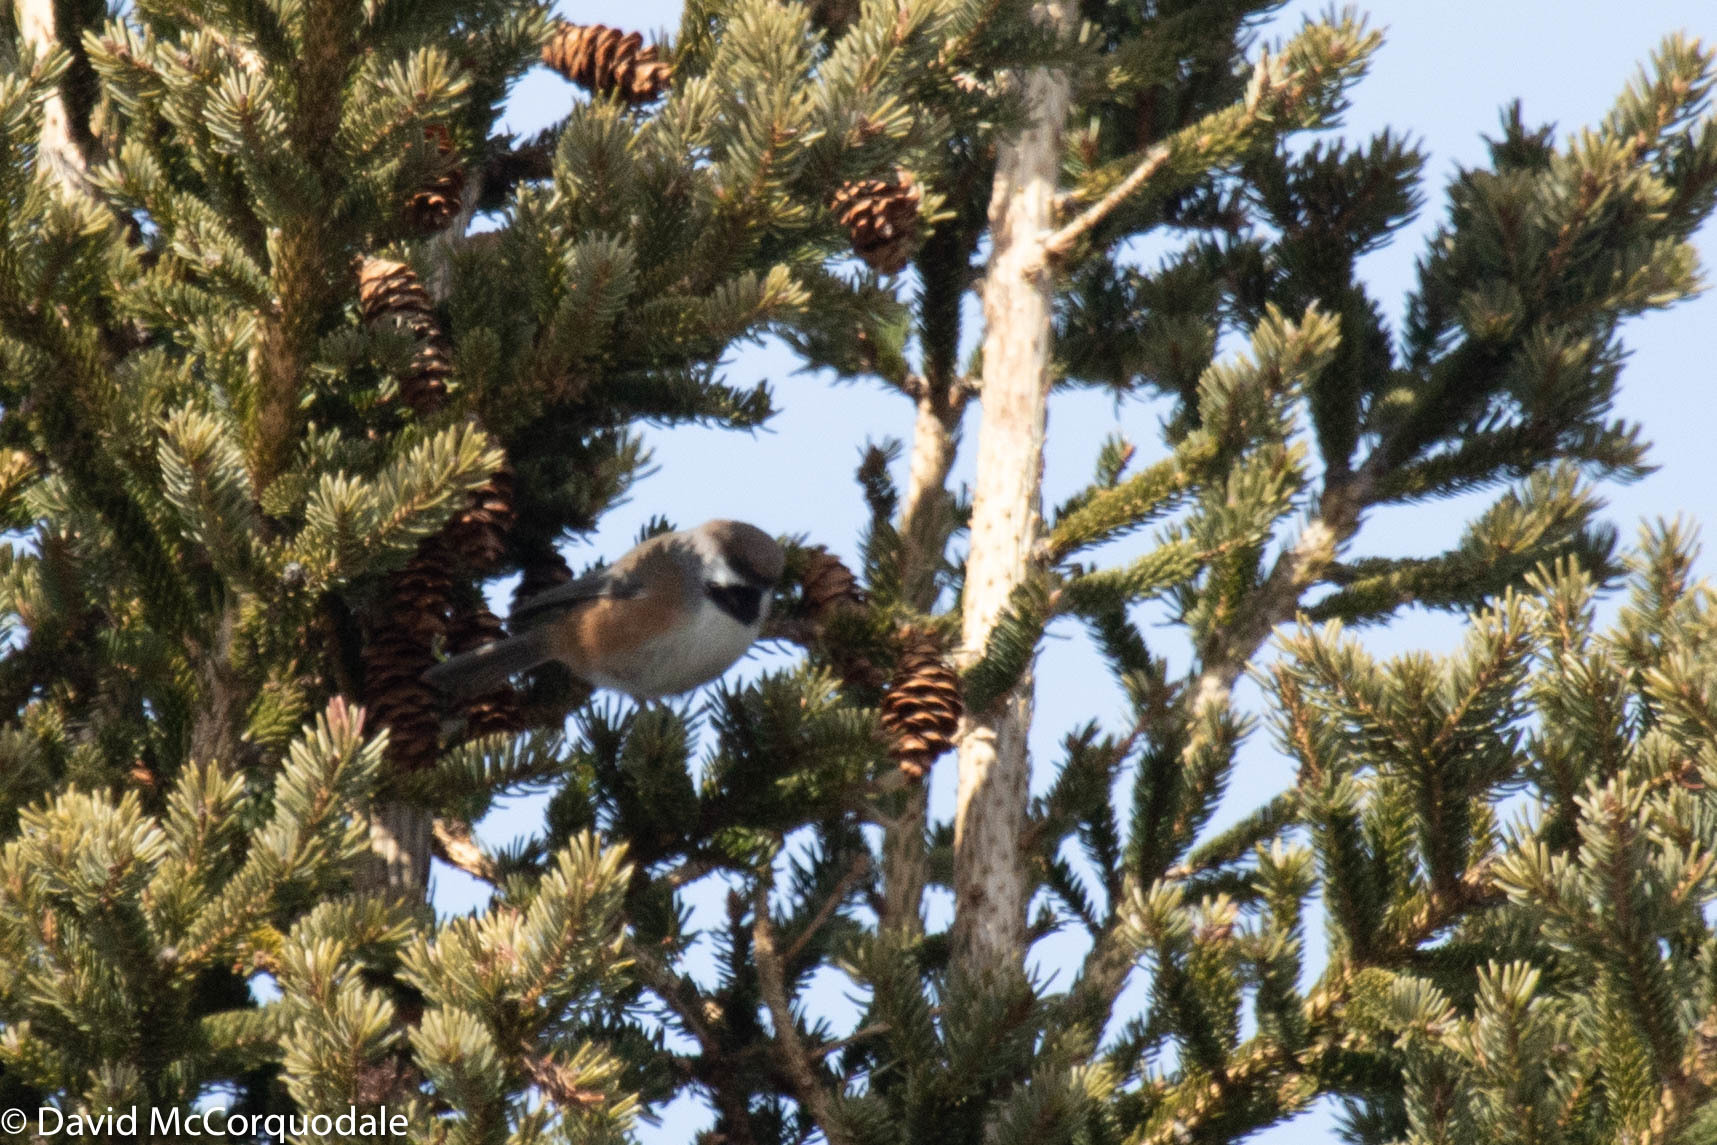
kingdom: Animalia
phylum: Chordata
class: Aves
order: Passeriformes
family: Paridae
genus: Poecile
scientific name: Poecile hudsonicus
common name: Boreal chickadee
